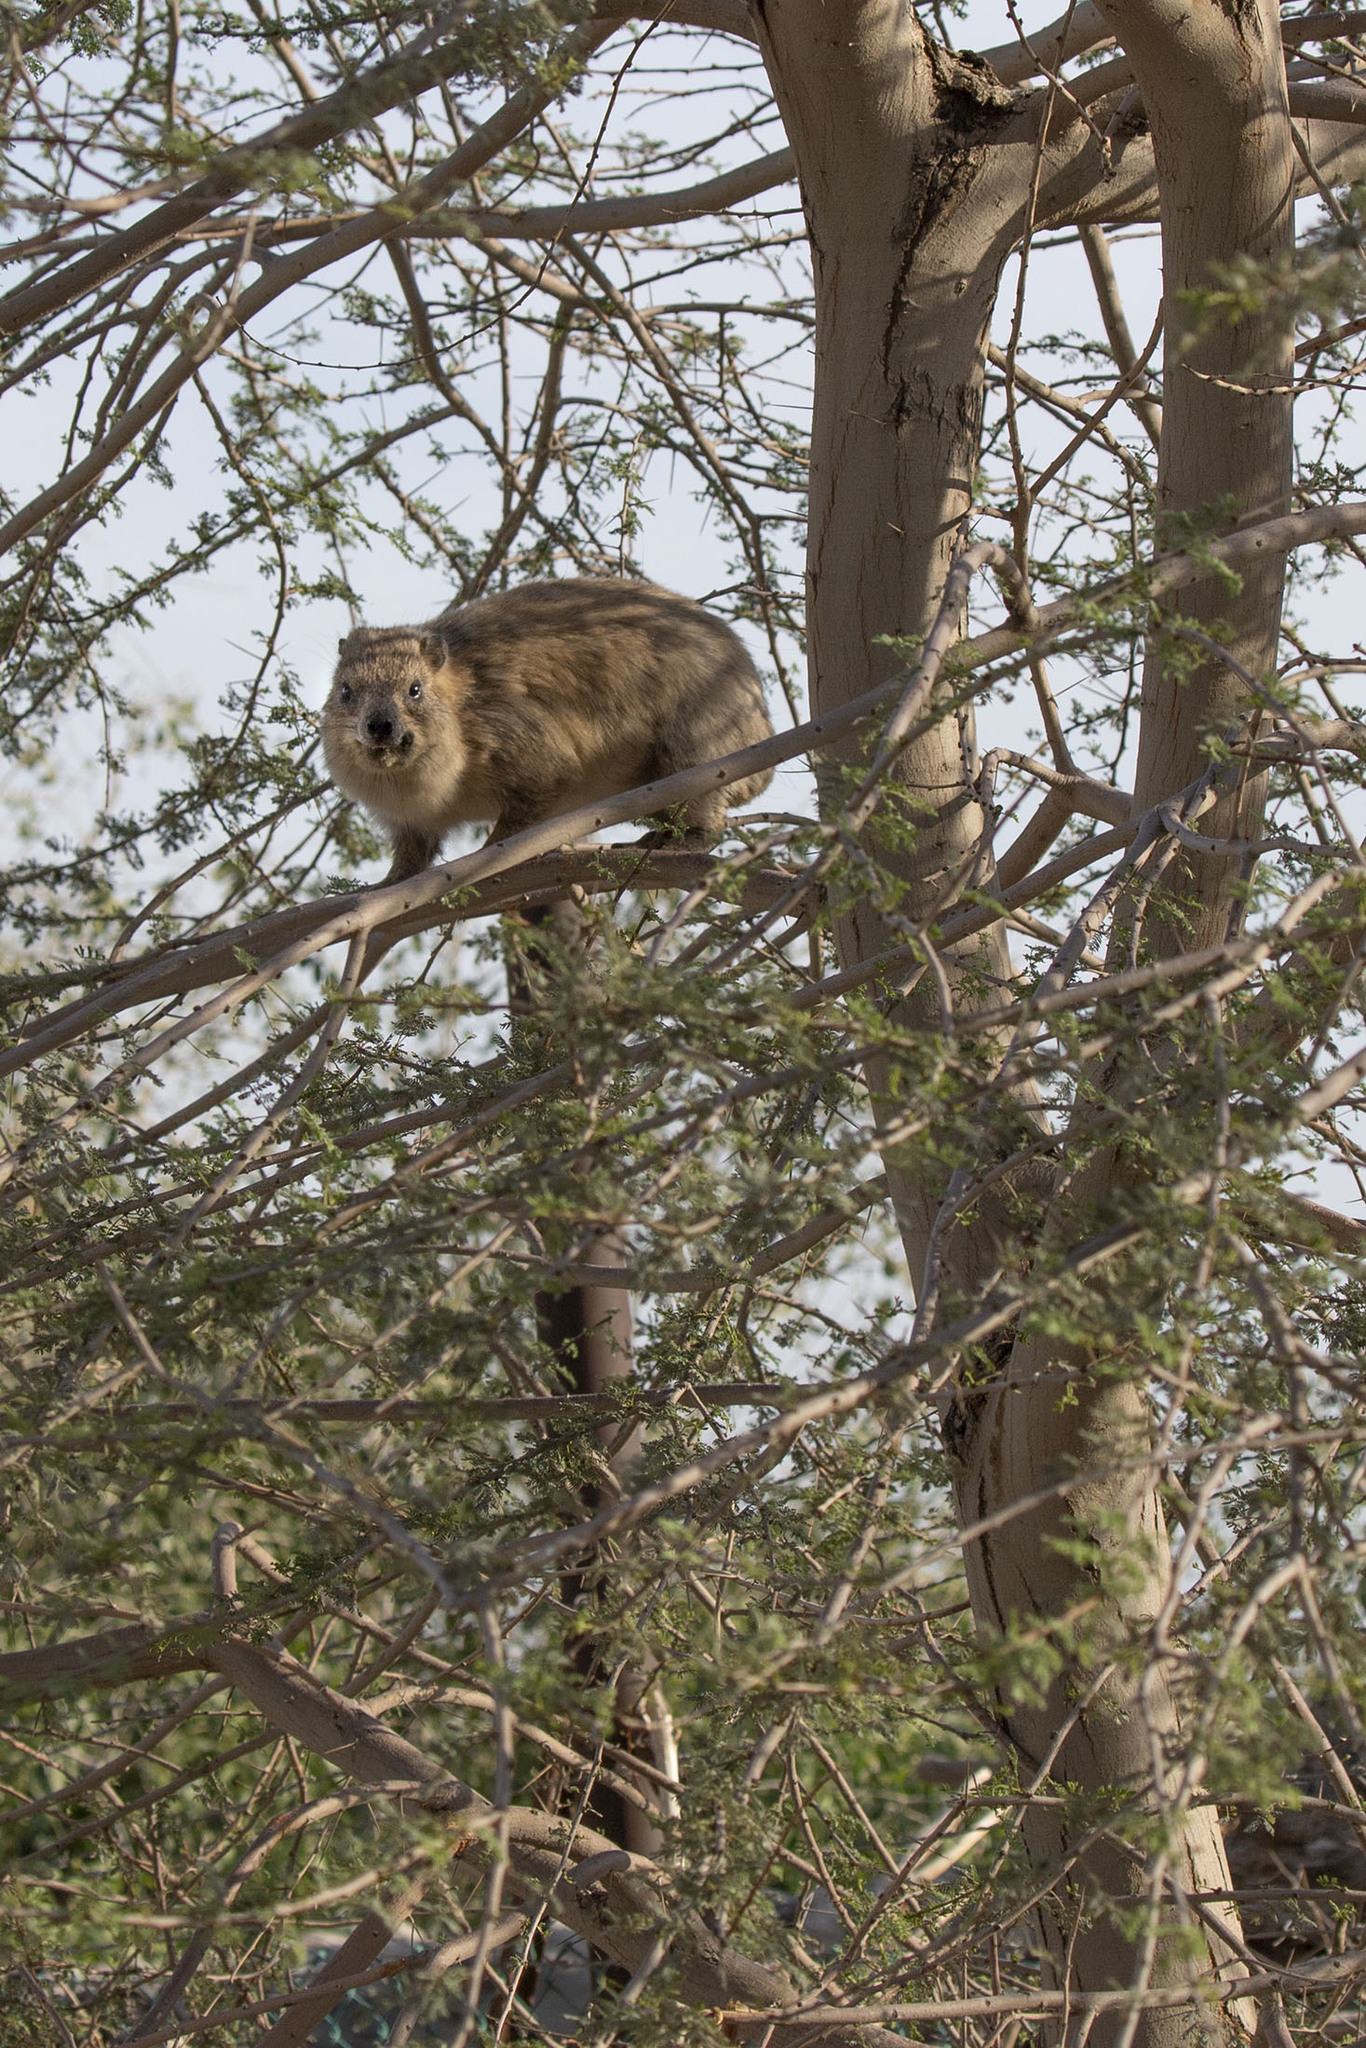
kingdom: Animalia
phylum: Chordata
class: Mammalia
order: Hyracoidea
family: Procaviidae
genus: Procavia
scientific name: Procavia capensis
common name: Rock hyrax
